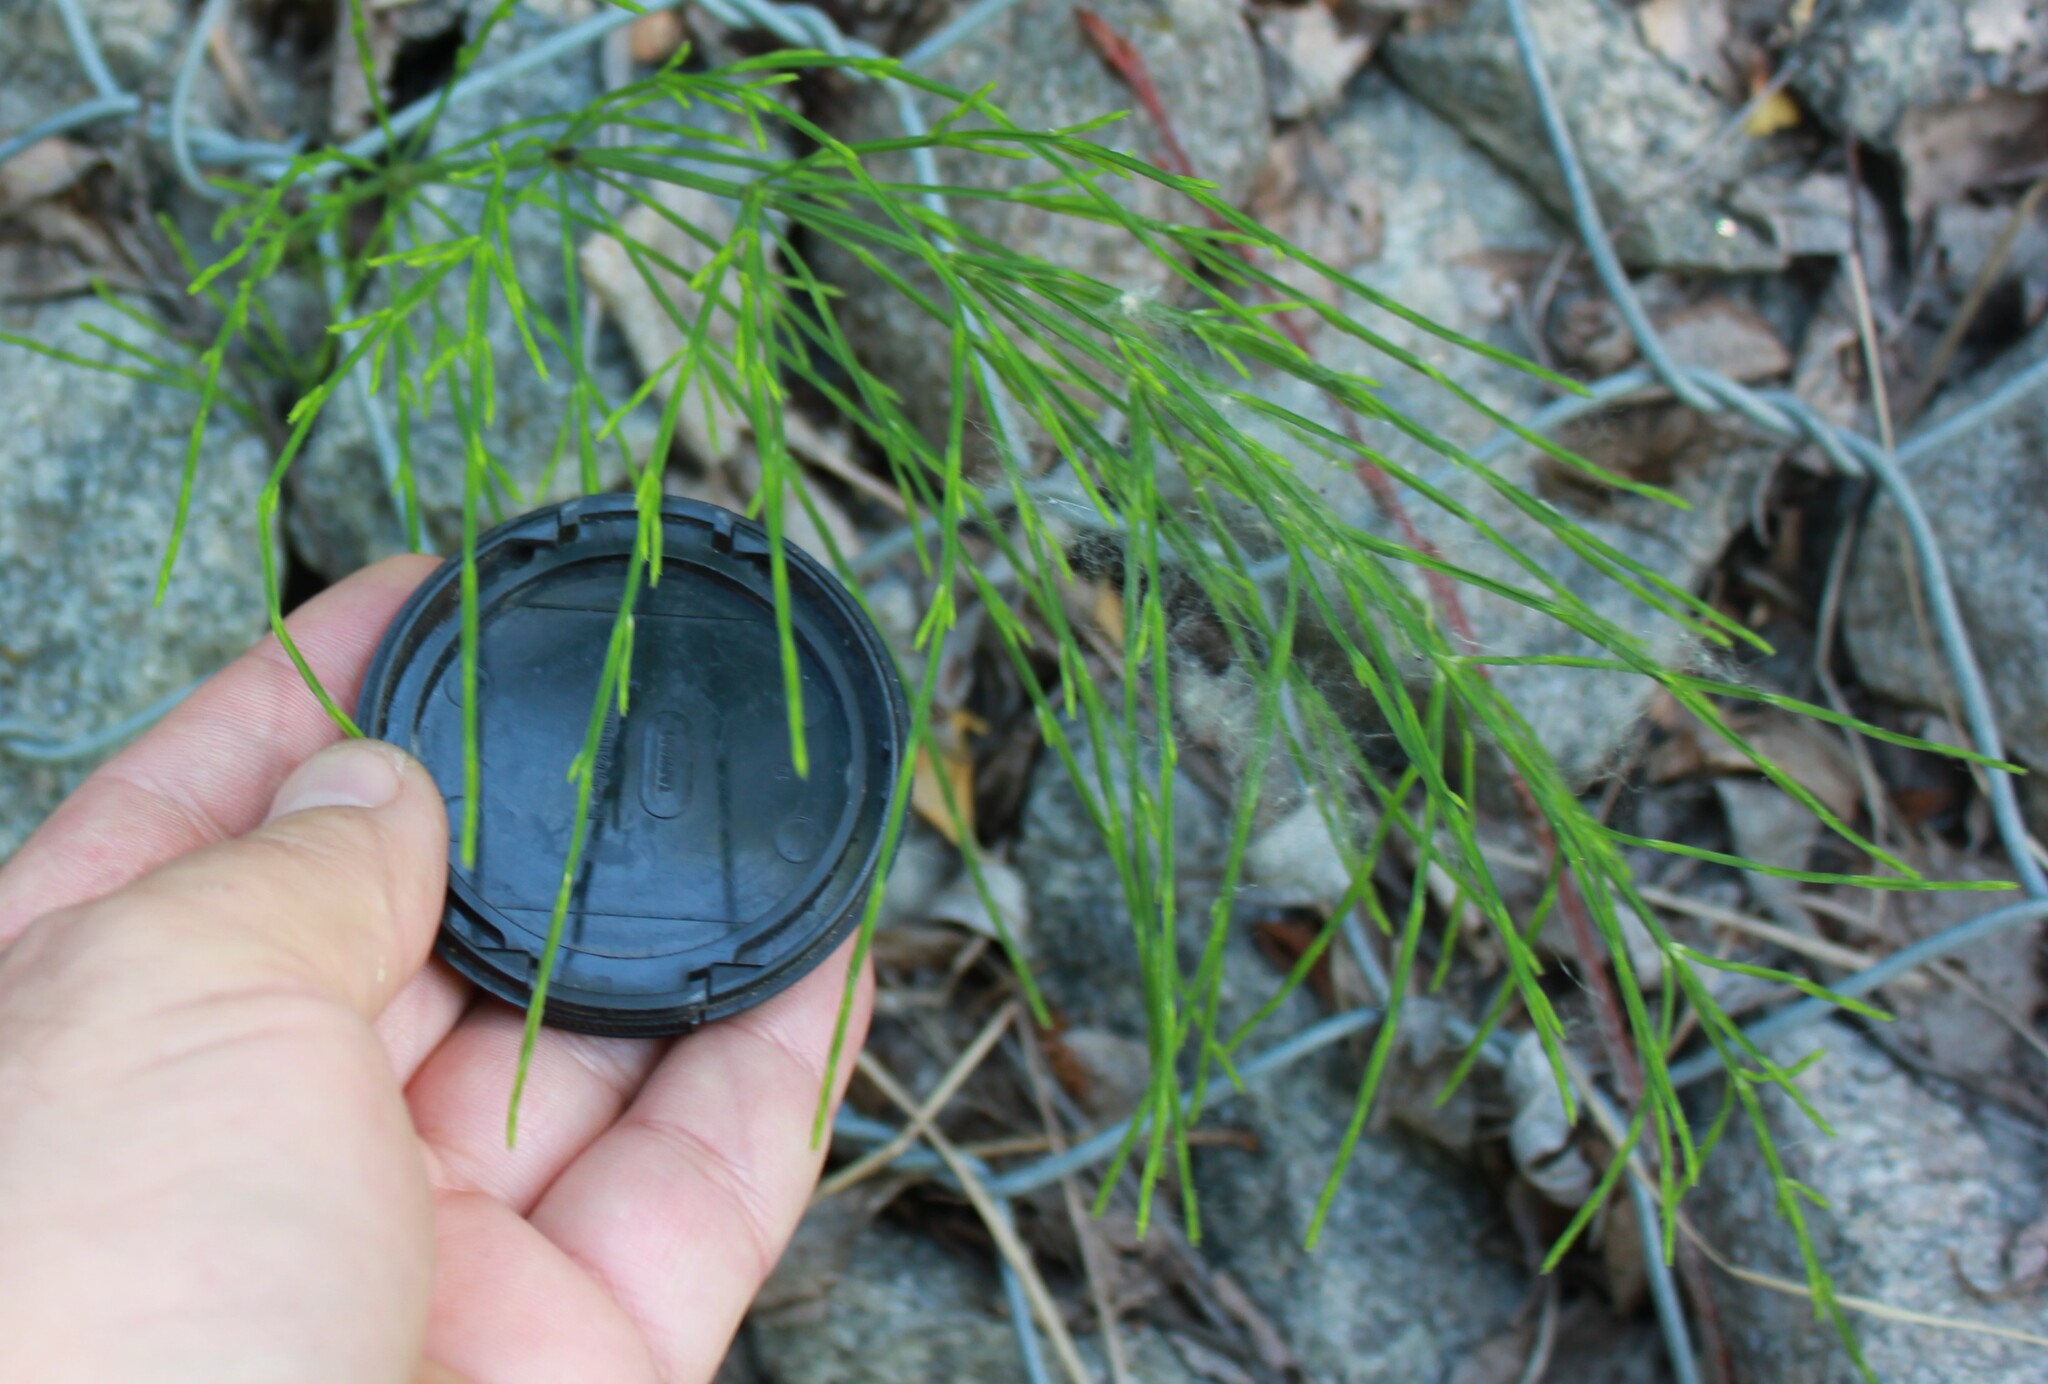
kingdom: Plantae
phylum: Tracheophyta
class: Polypodiopsida
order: Equisetales
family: Equisetaceae
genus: Equisetum
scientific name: Equisetum arvense
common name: Field horsetail
